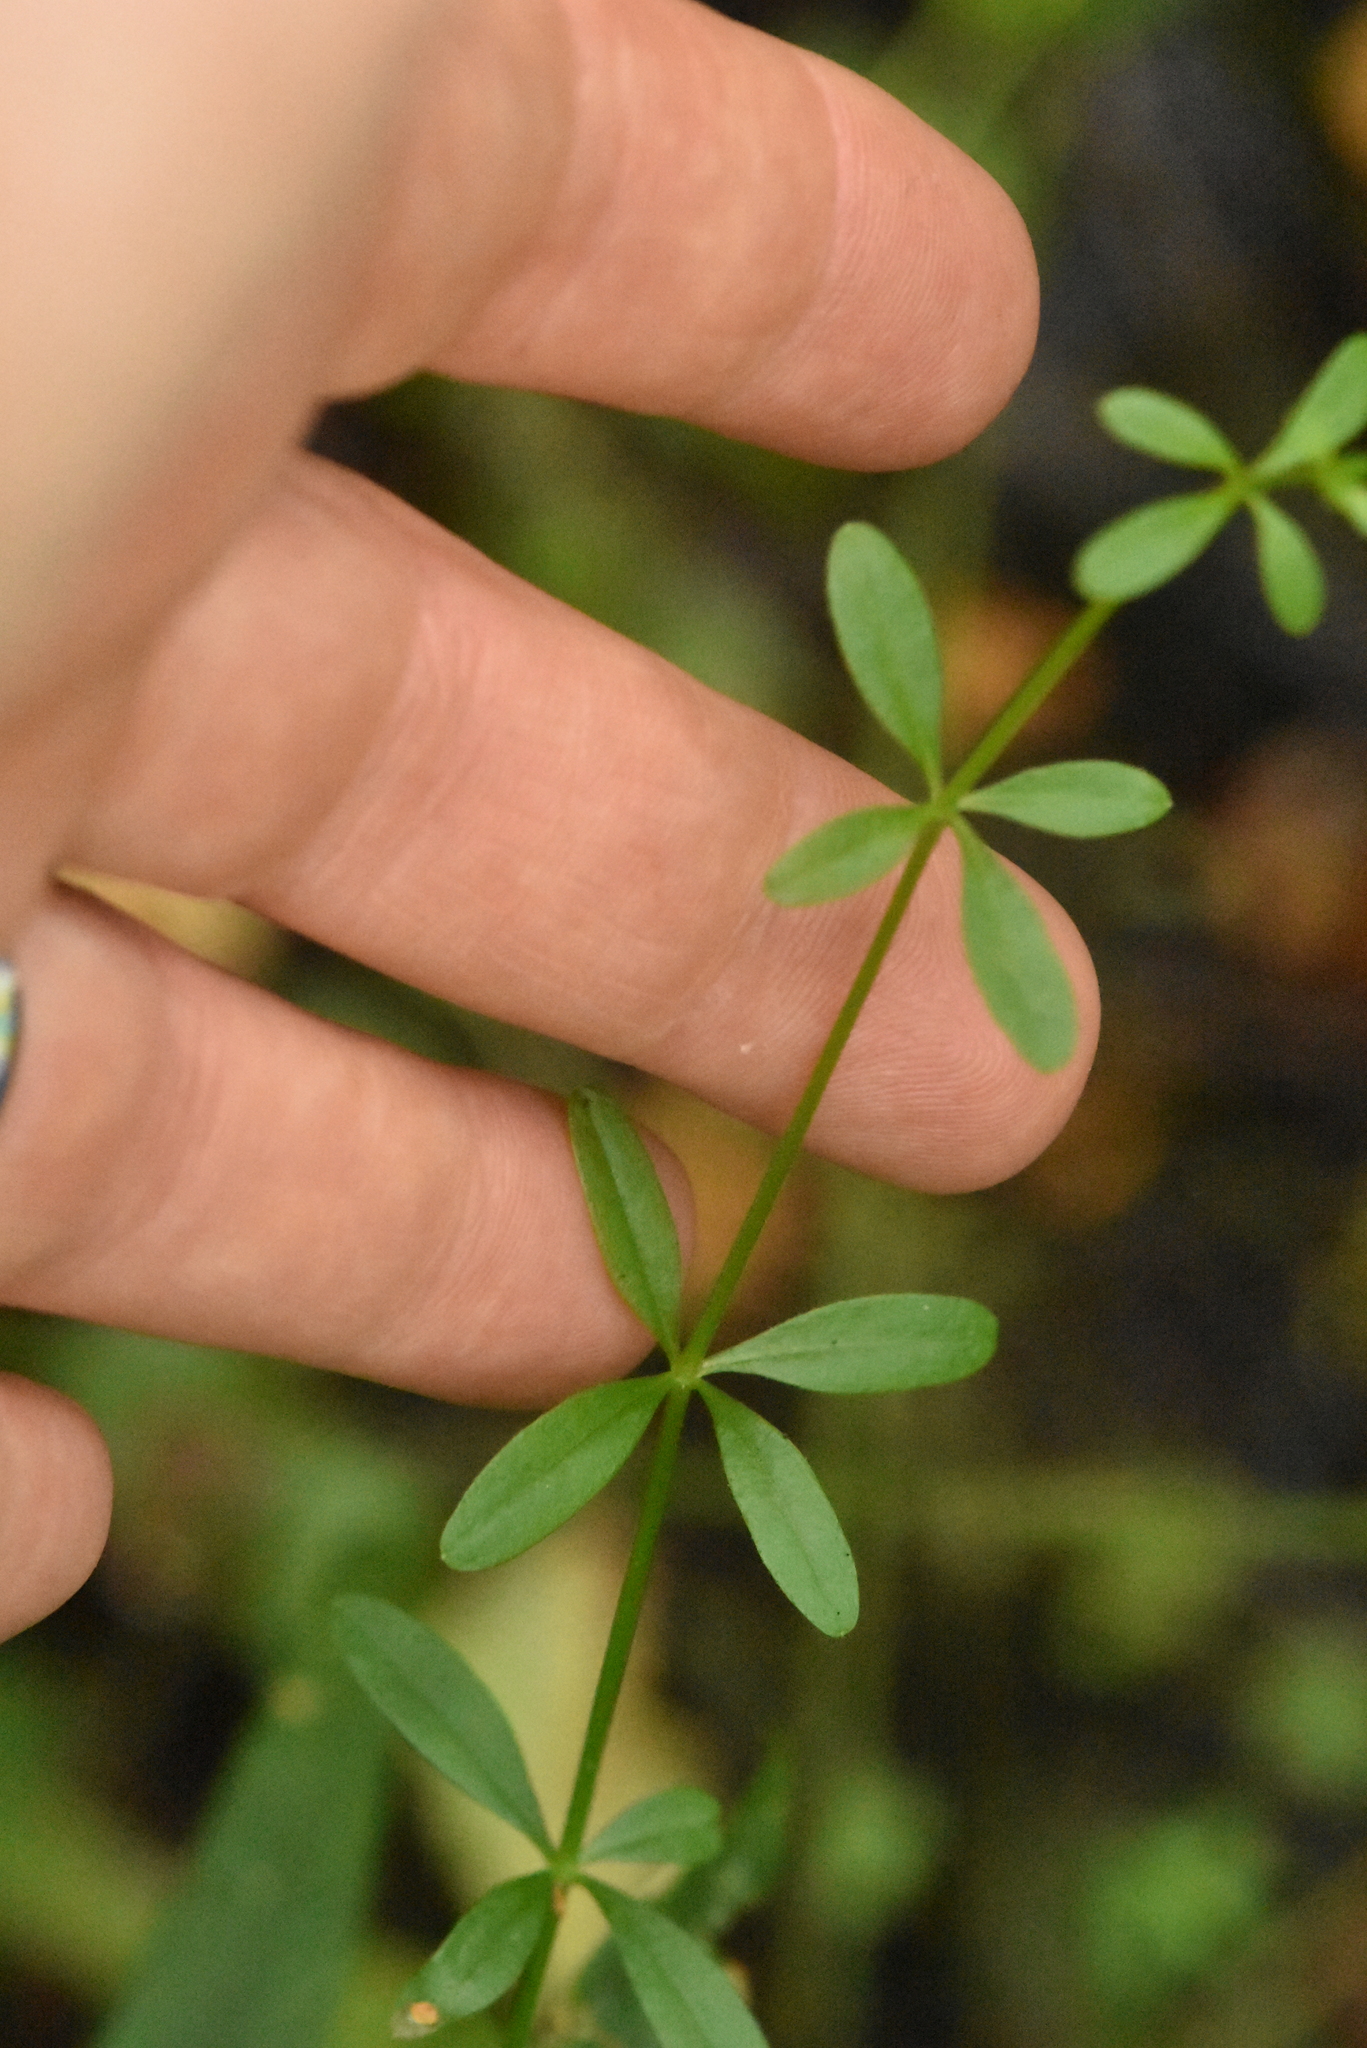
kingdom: Plantae
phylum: Tracheophyta
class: Magnoliopsida
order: Gentianales
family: Rubiaceae
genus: Galium
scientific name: Galium palustre
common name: Common marsh-bedstraw
